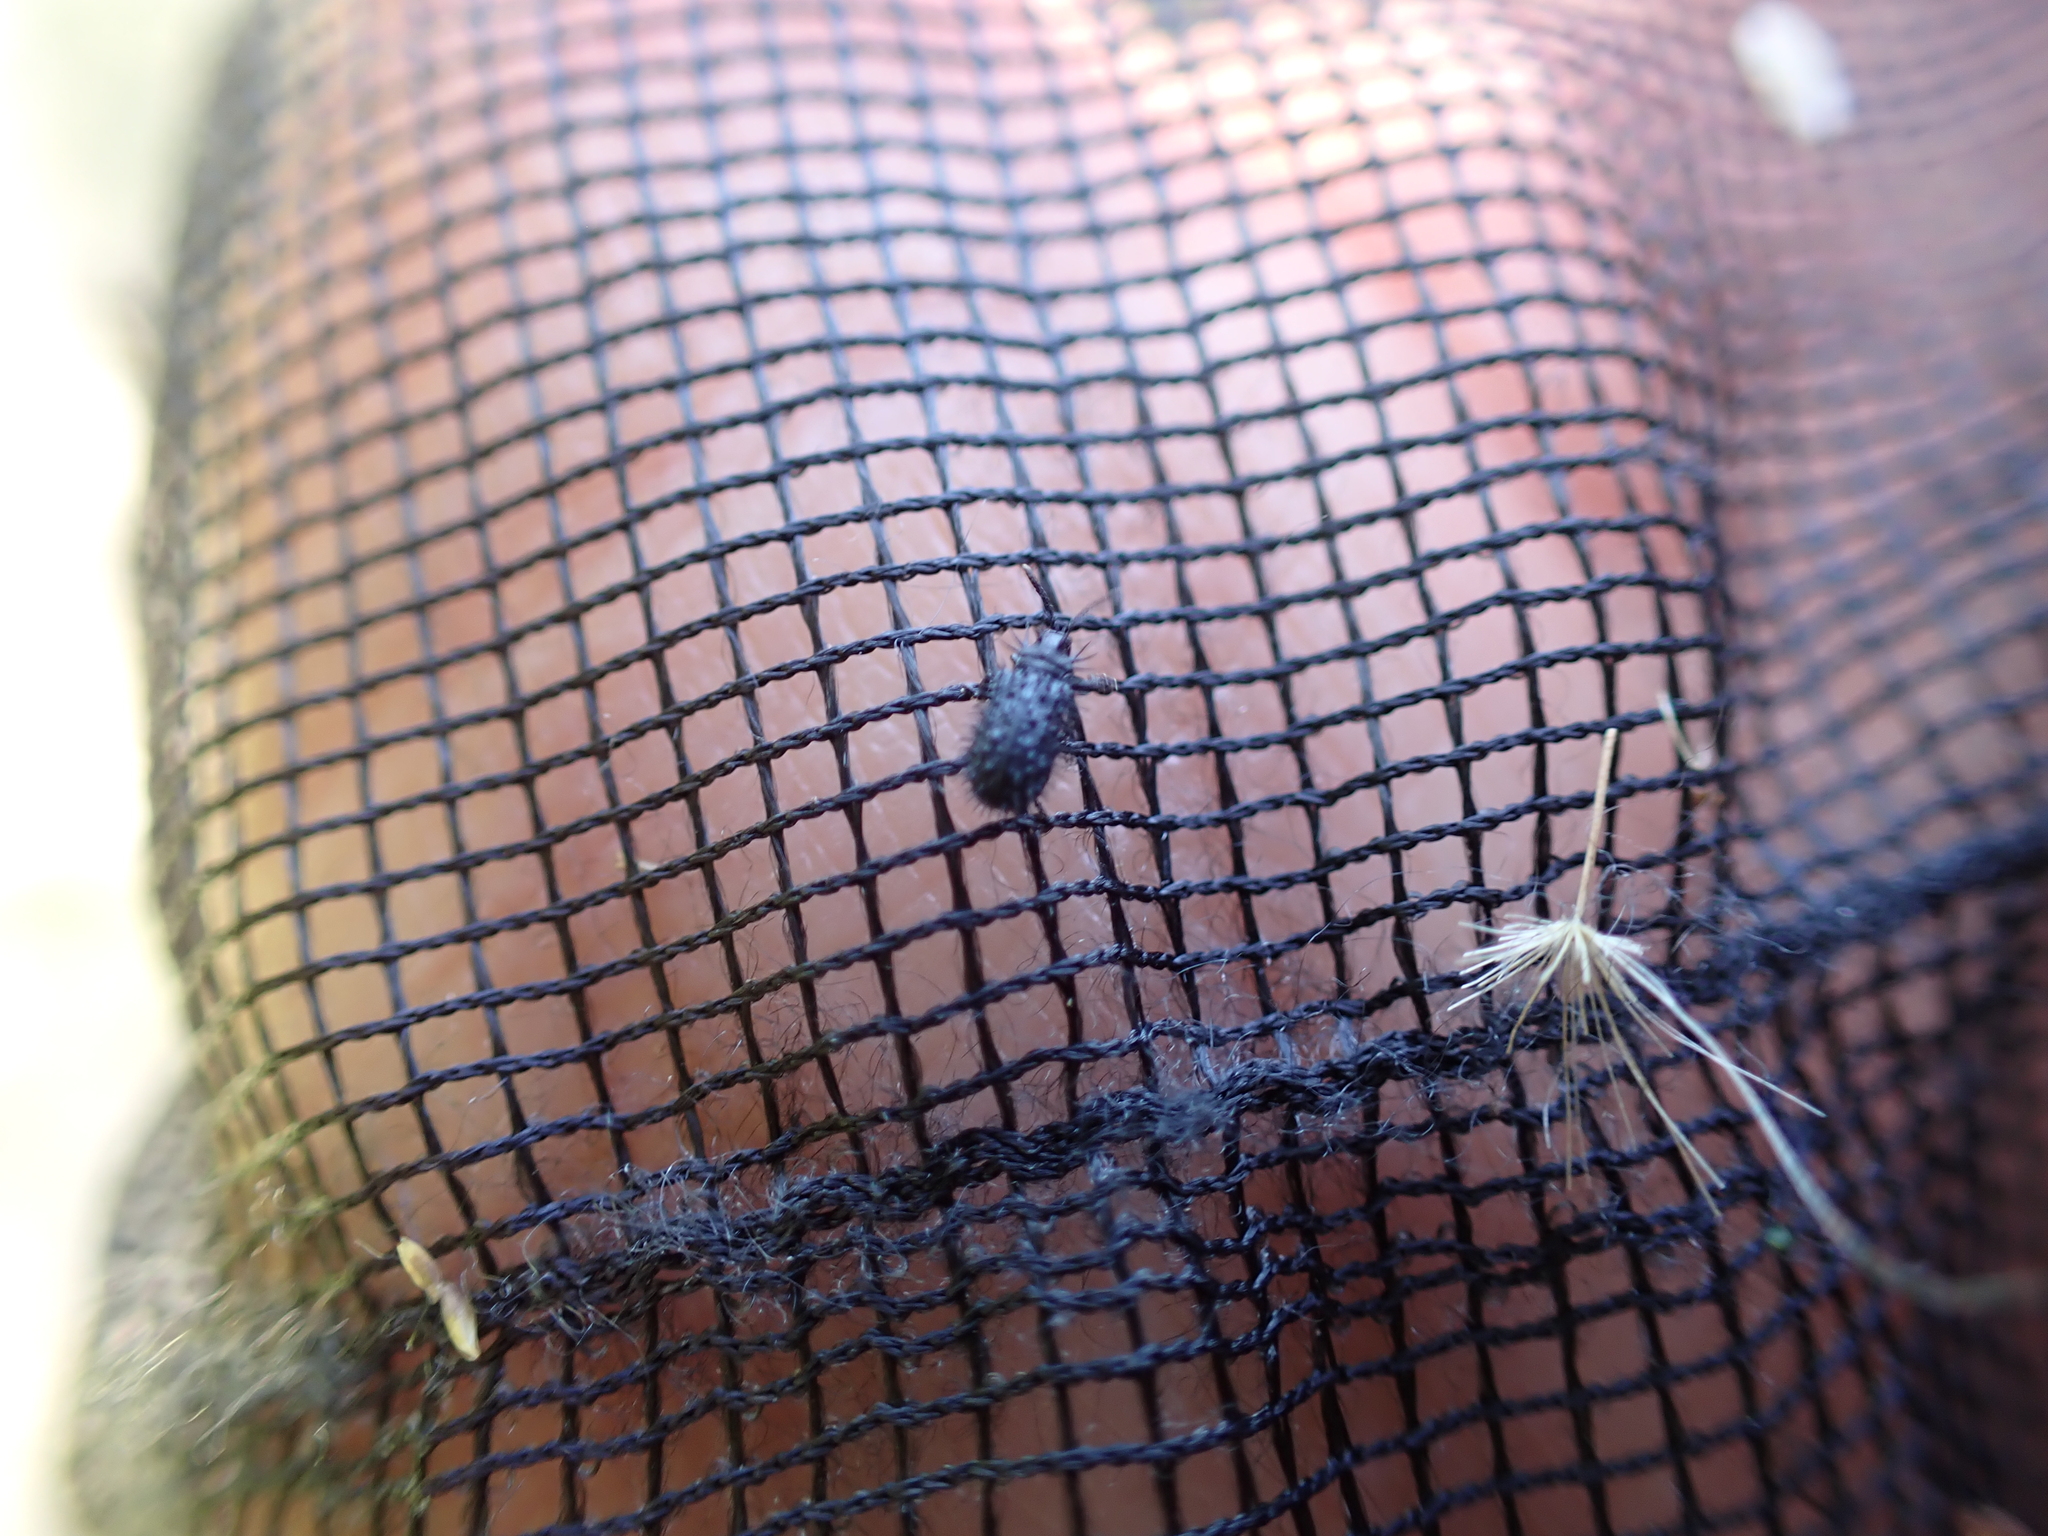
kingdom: Animalia
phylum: Arthropoda
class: Insecta
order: Coleoptera
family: Chrysomelidae
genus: Hispa
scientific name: Hispa atra
